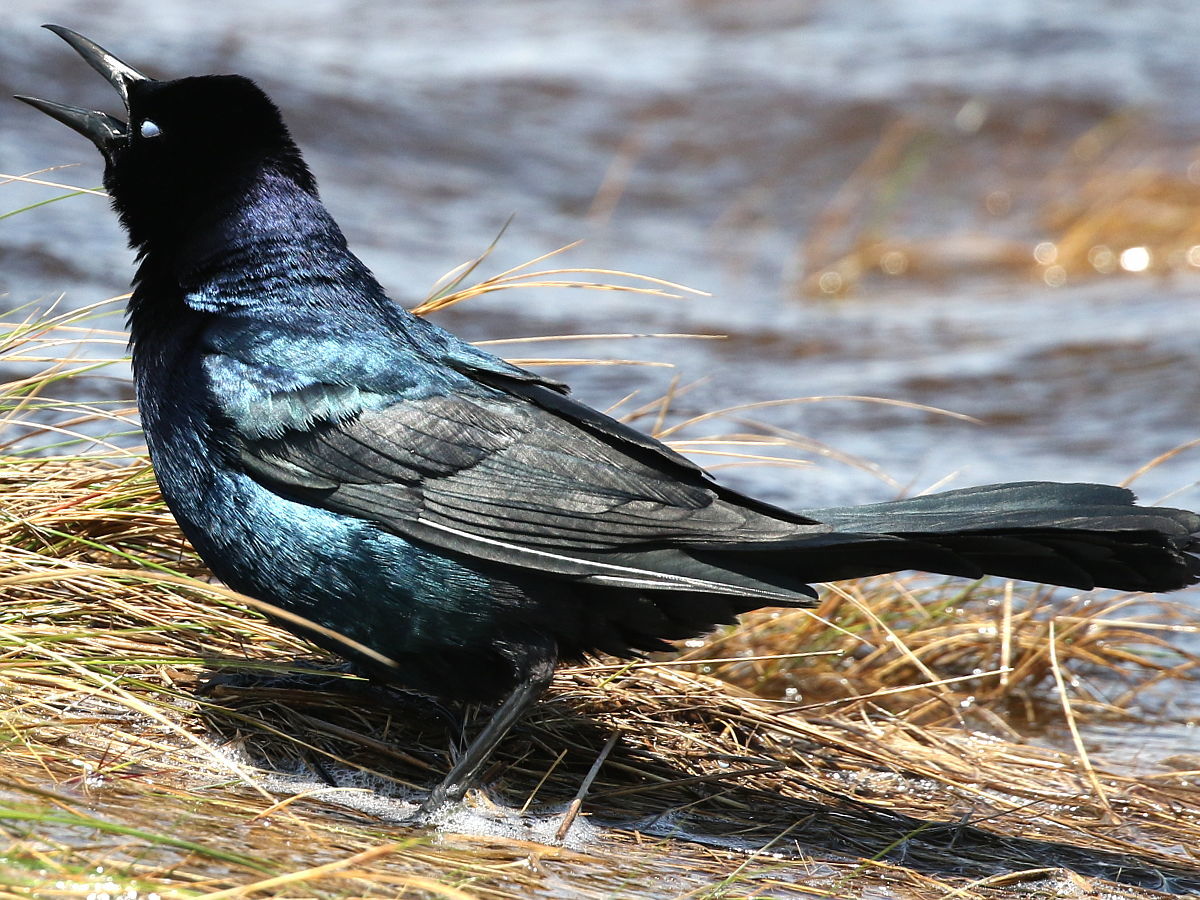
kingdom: Animalia
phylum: Chordata
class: Aves
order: Passeriformes
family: Icteridae
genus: Quiscalus
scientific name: Quiscalus major
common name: Boat-tailed grackle
